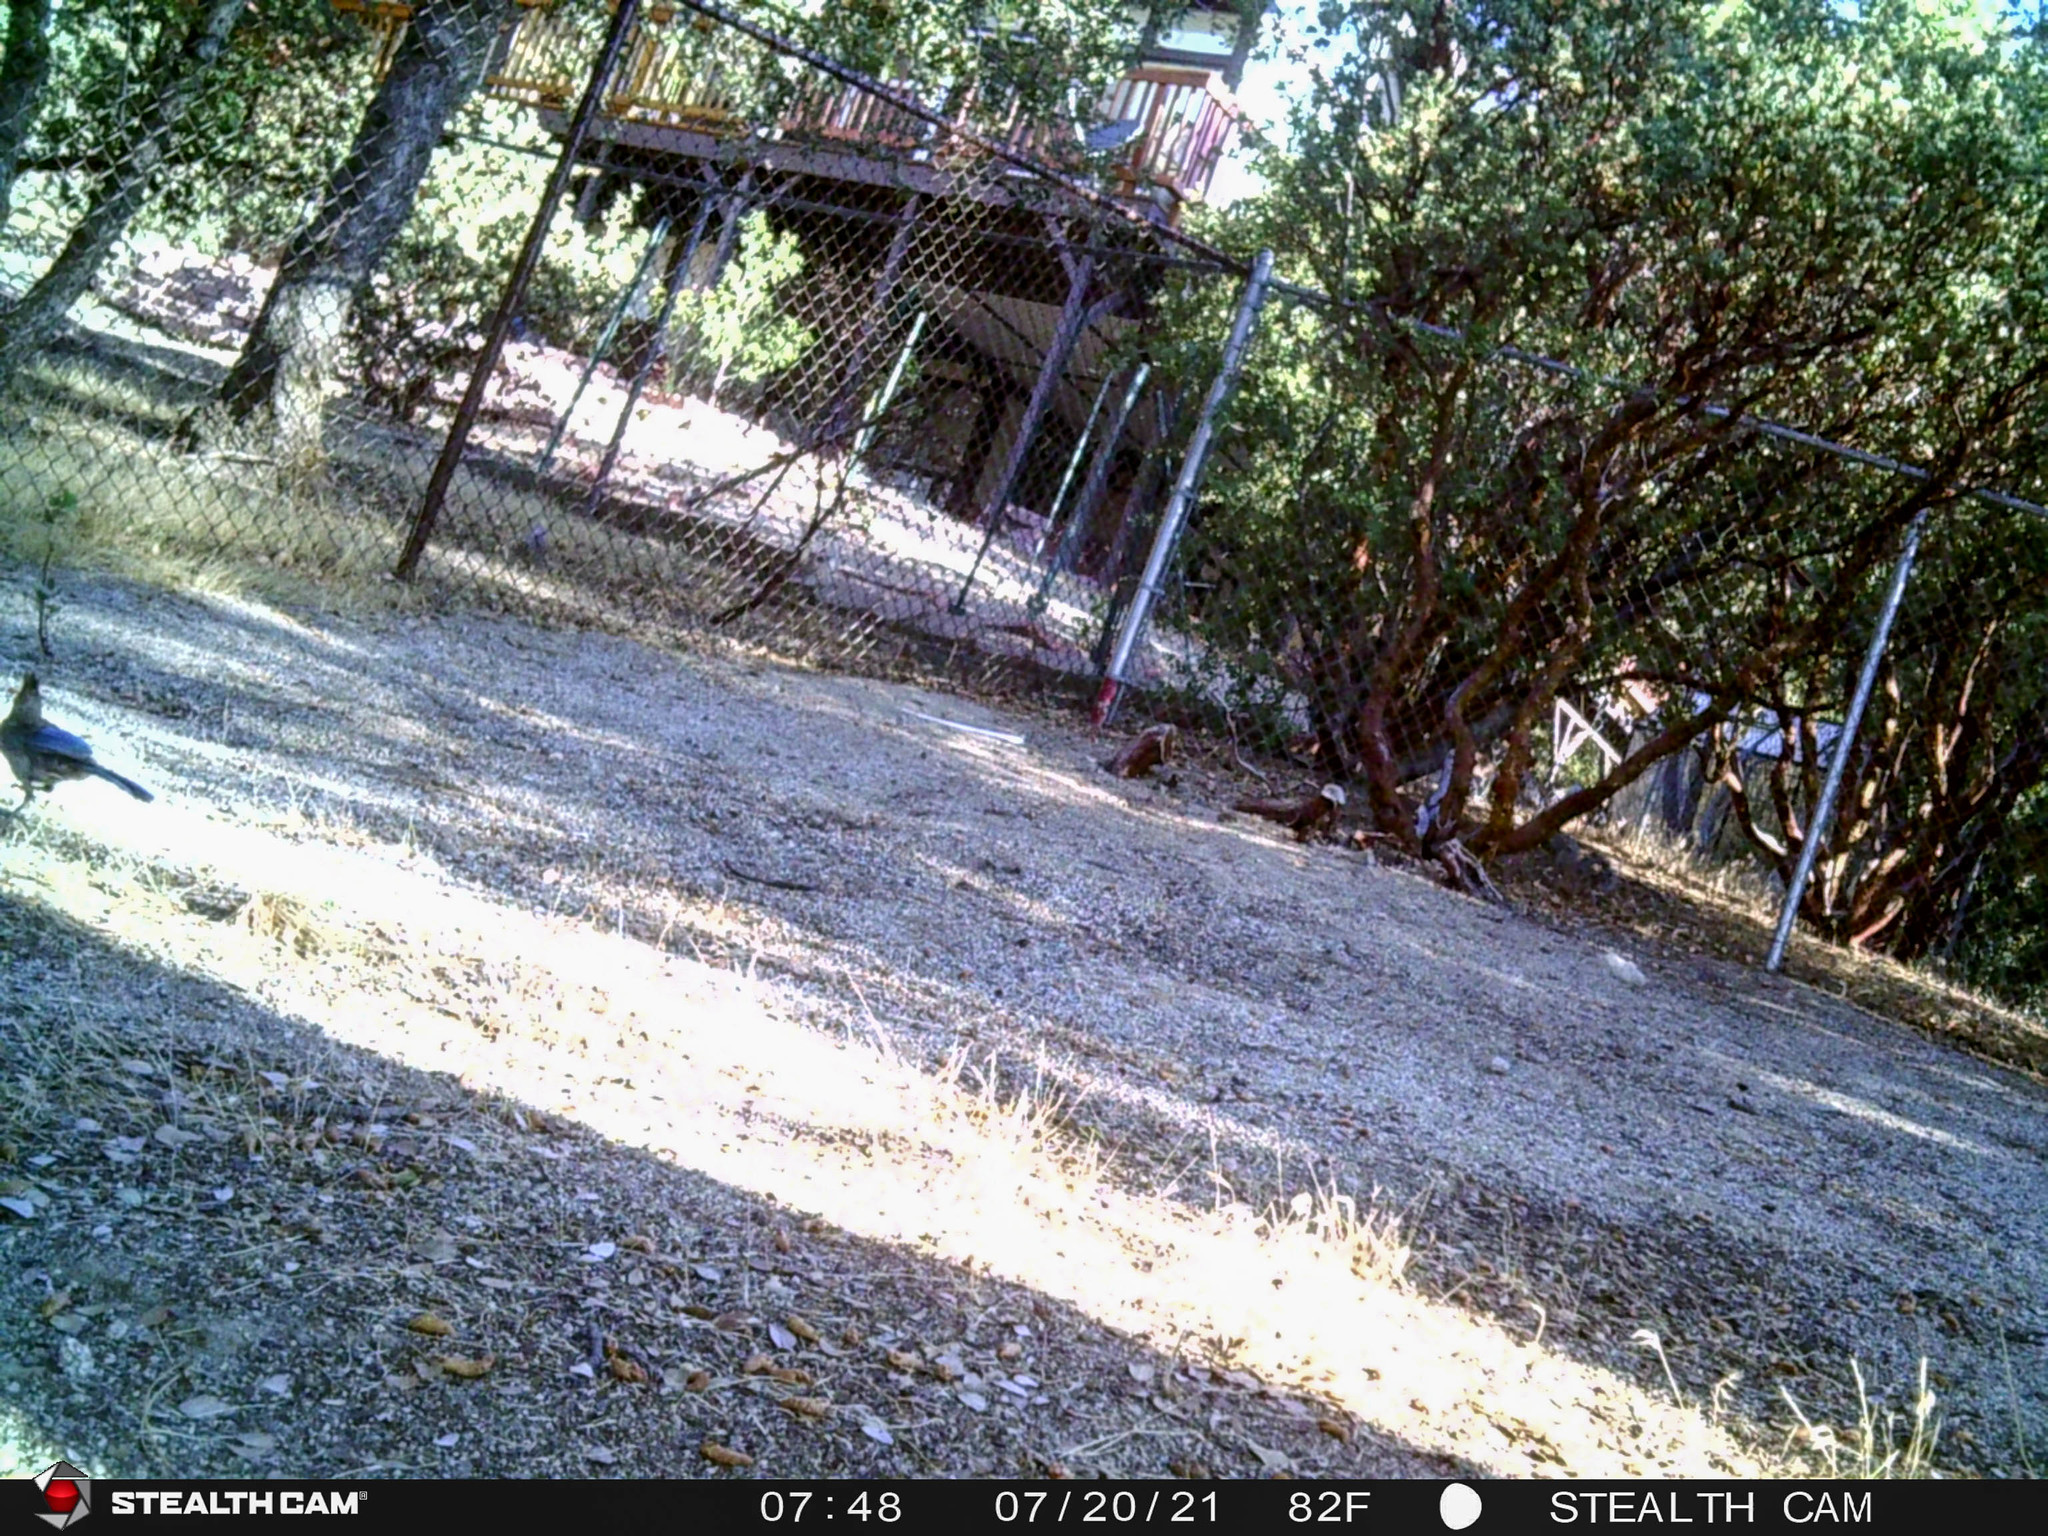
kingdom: Animalia
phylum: Chordata
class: Aves
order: Passeriformes
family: Corvidae
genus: Cyanocitta
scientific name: Cyanocitta stelleri
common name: Steller's jay
